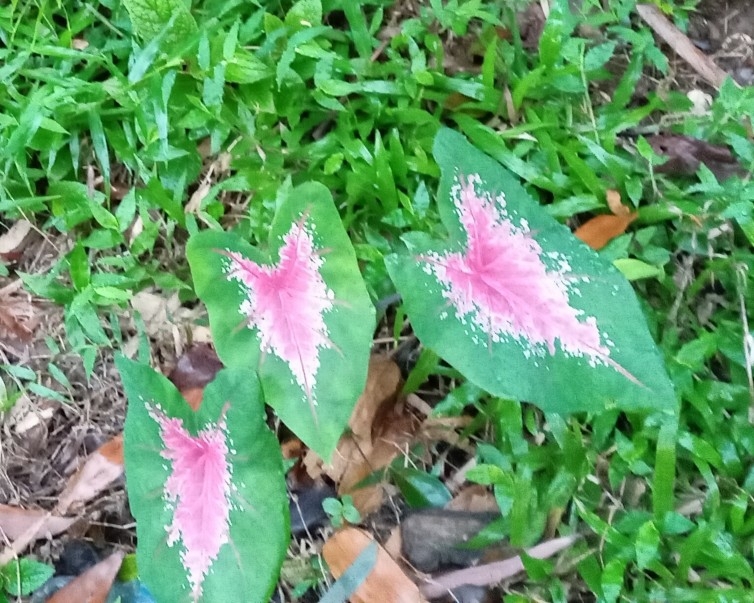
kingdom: Plantae
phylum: Tracheophyta
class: Liliopsida
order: Alismatales
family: Araceae
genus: Caladium
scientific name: Caladium bicolor
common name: Artist's pallet
